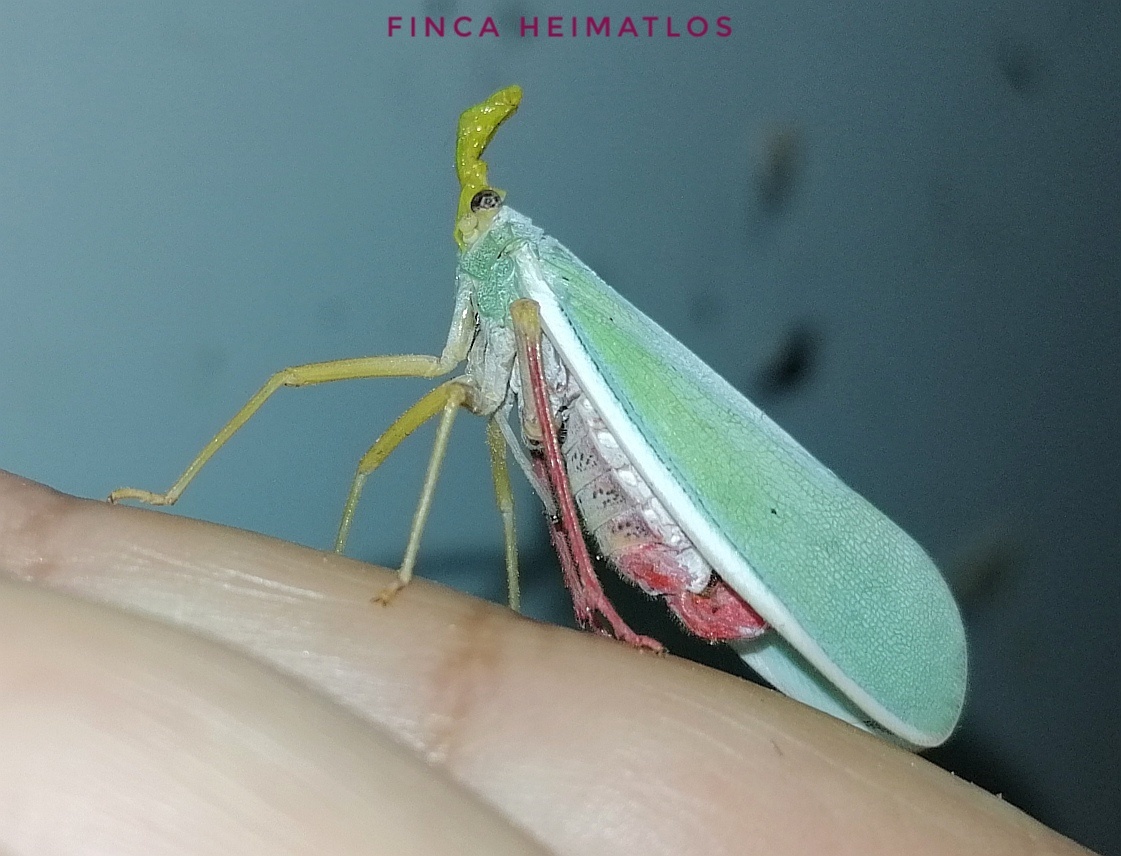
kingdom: Animalia
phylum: Arthropoda
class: Insecta
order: Hemiptera
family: Fulgoridae
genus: Enchophora
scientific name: Enchophora prasina
